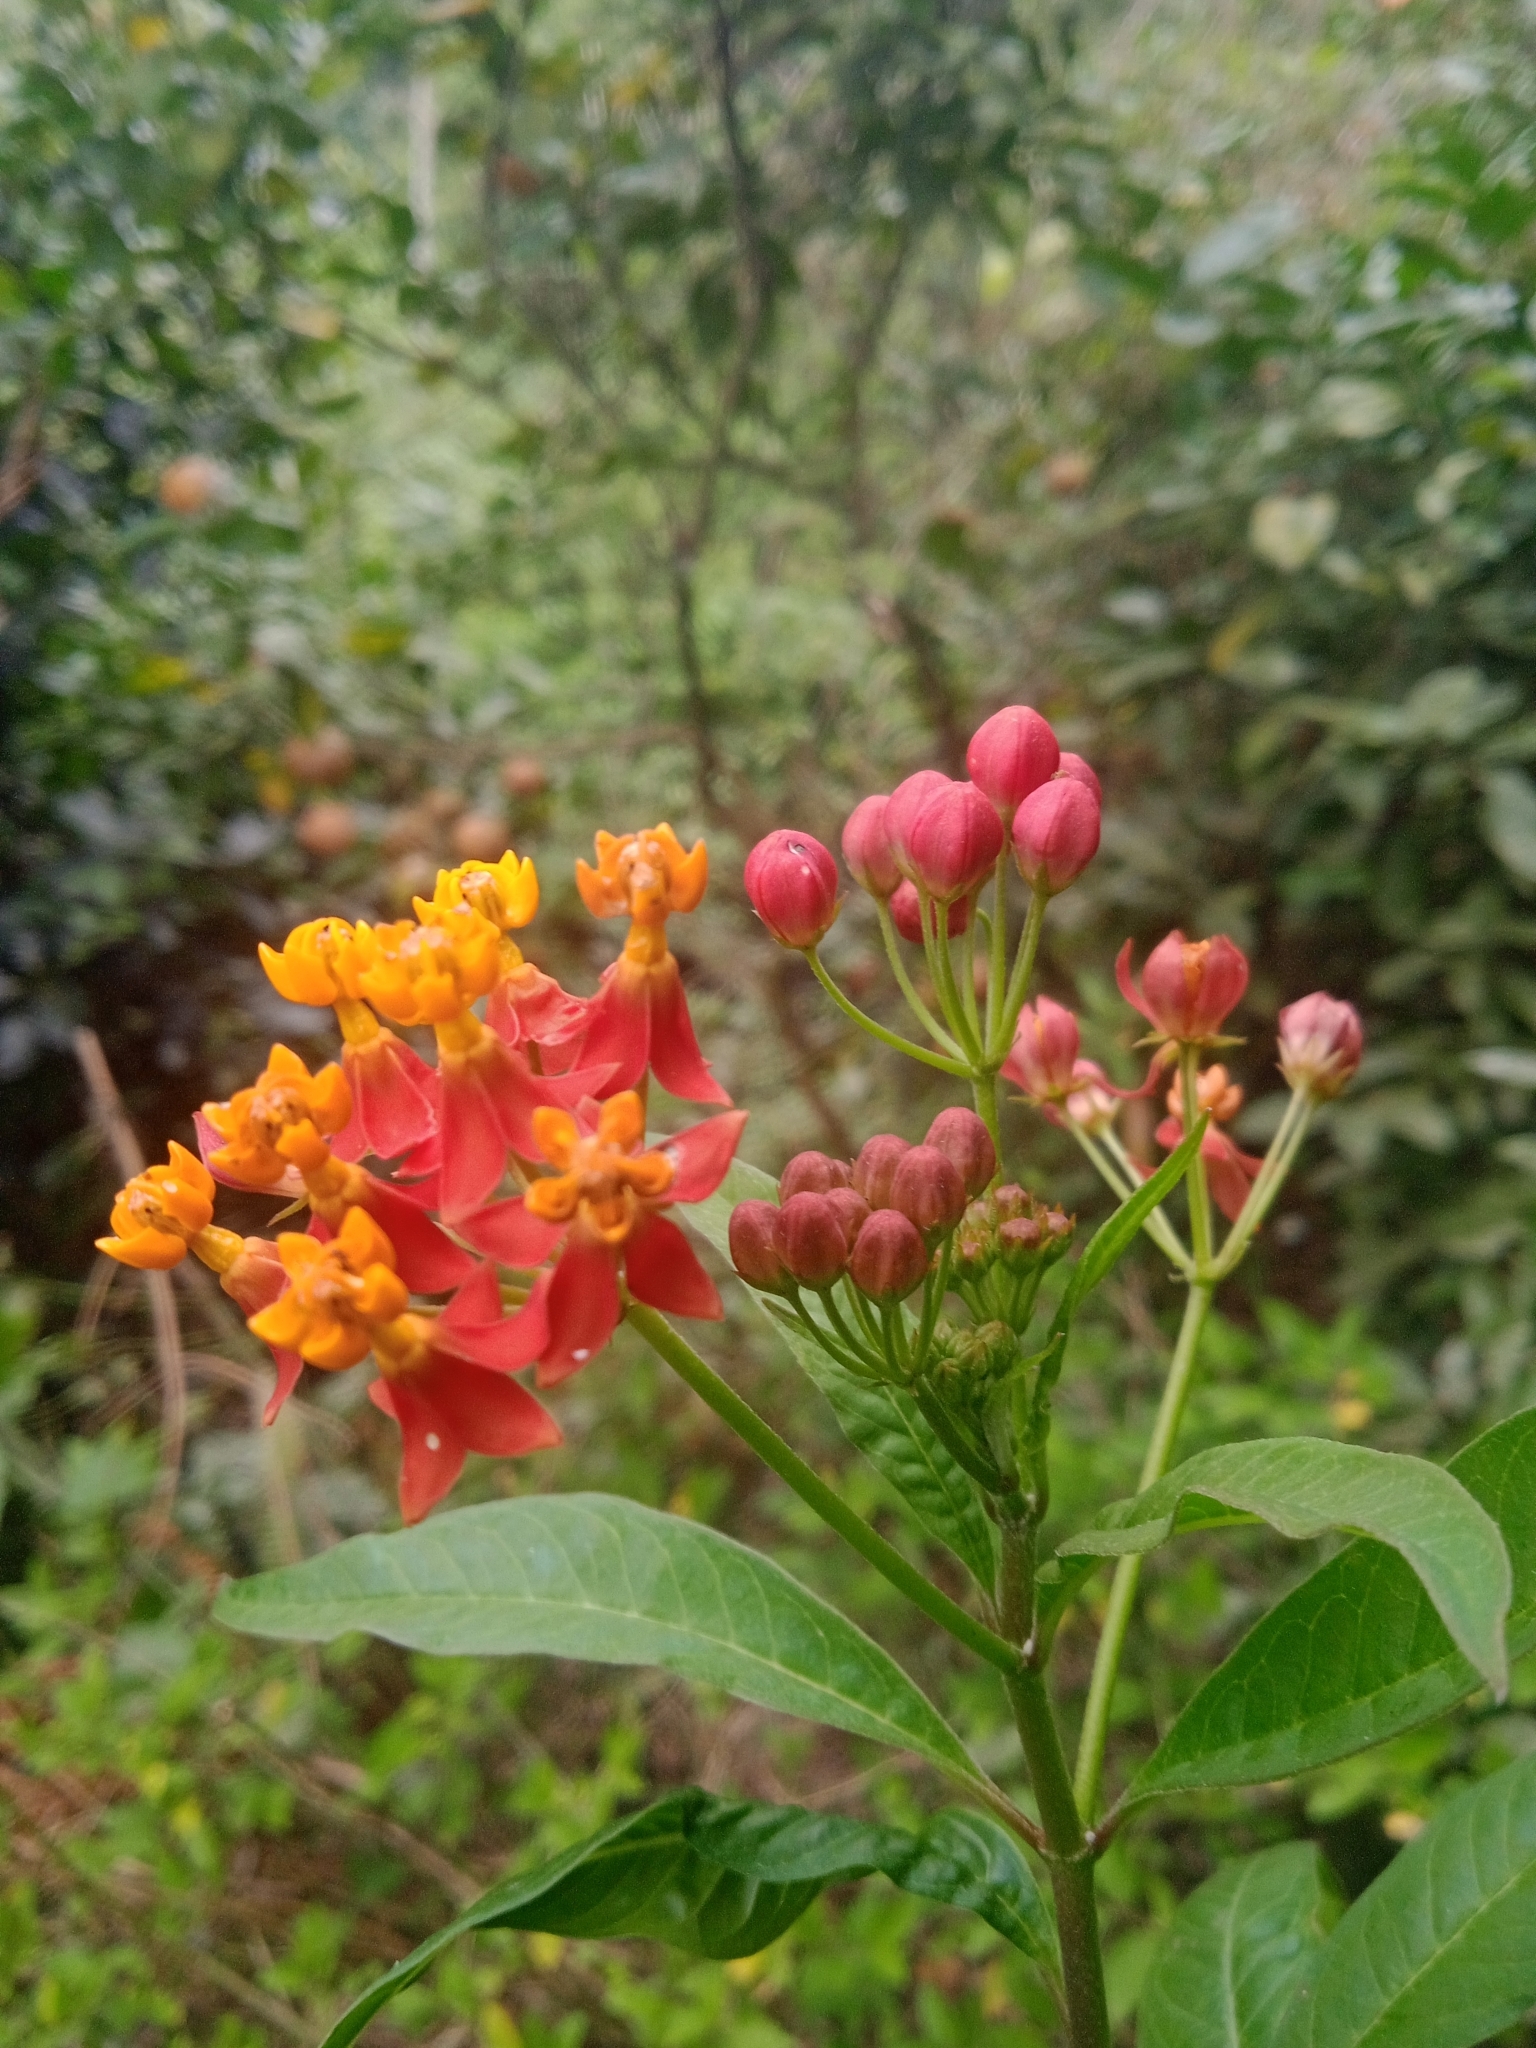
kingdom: Plantae
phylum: Tracheophyta
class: Magnoliopsida
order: Gentianales
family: Apocynaceae
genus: Asclepias
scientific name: Asclepias curassavica
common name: Bloodflower
